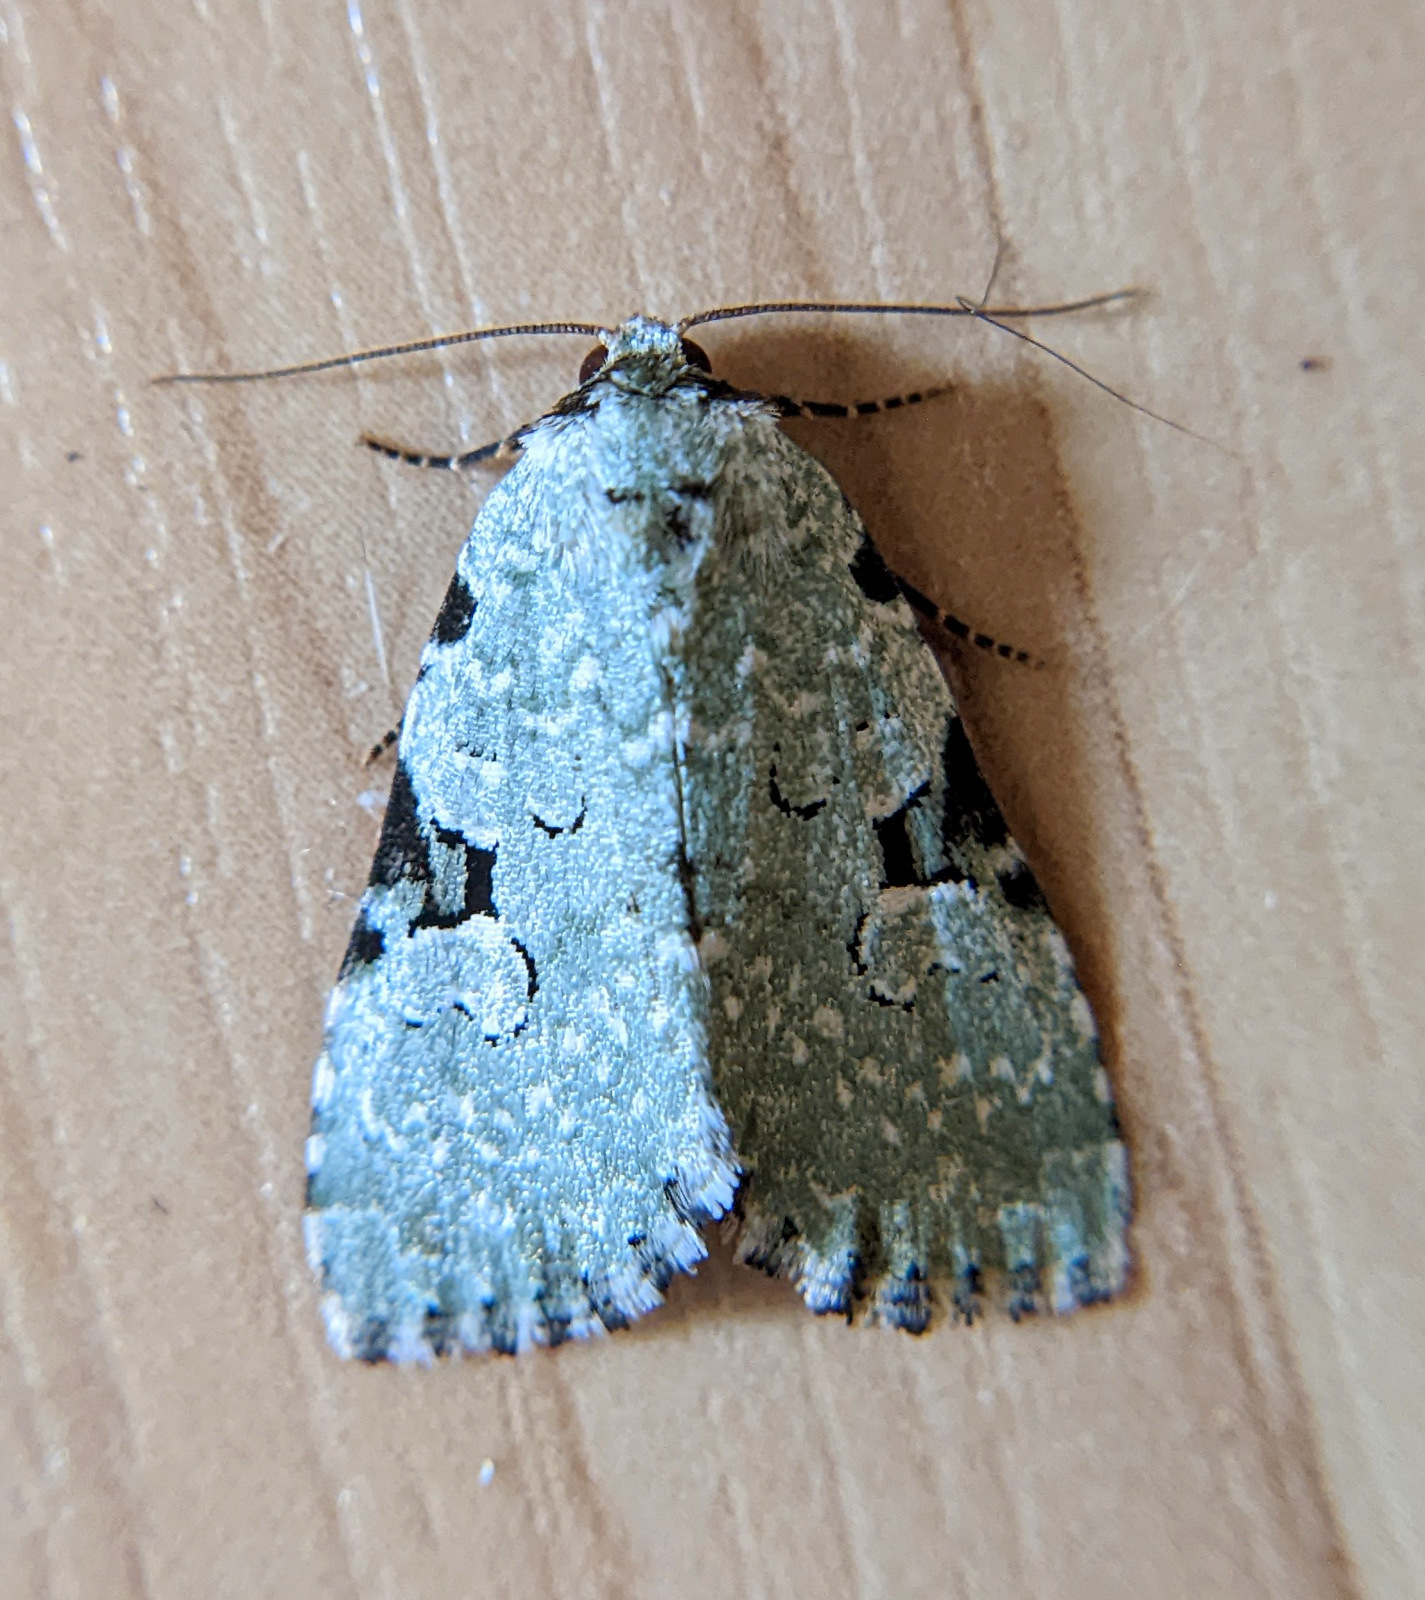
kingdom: Animalia
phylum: Arthropoda
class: Insecta
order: Lepidoptera
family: Noctuidae
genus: Leuconycta
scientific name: Leuconycta diphteroides
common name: Green leuconycta moth
